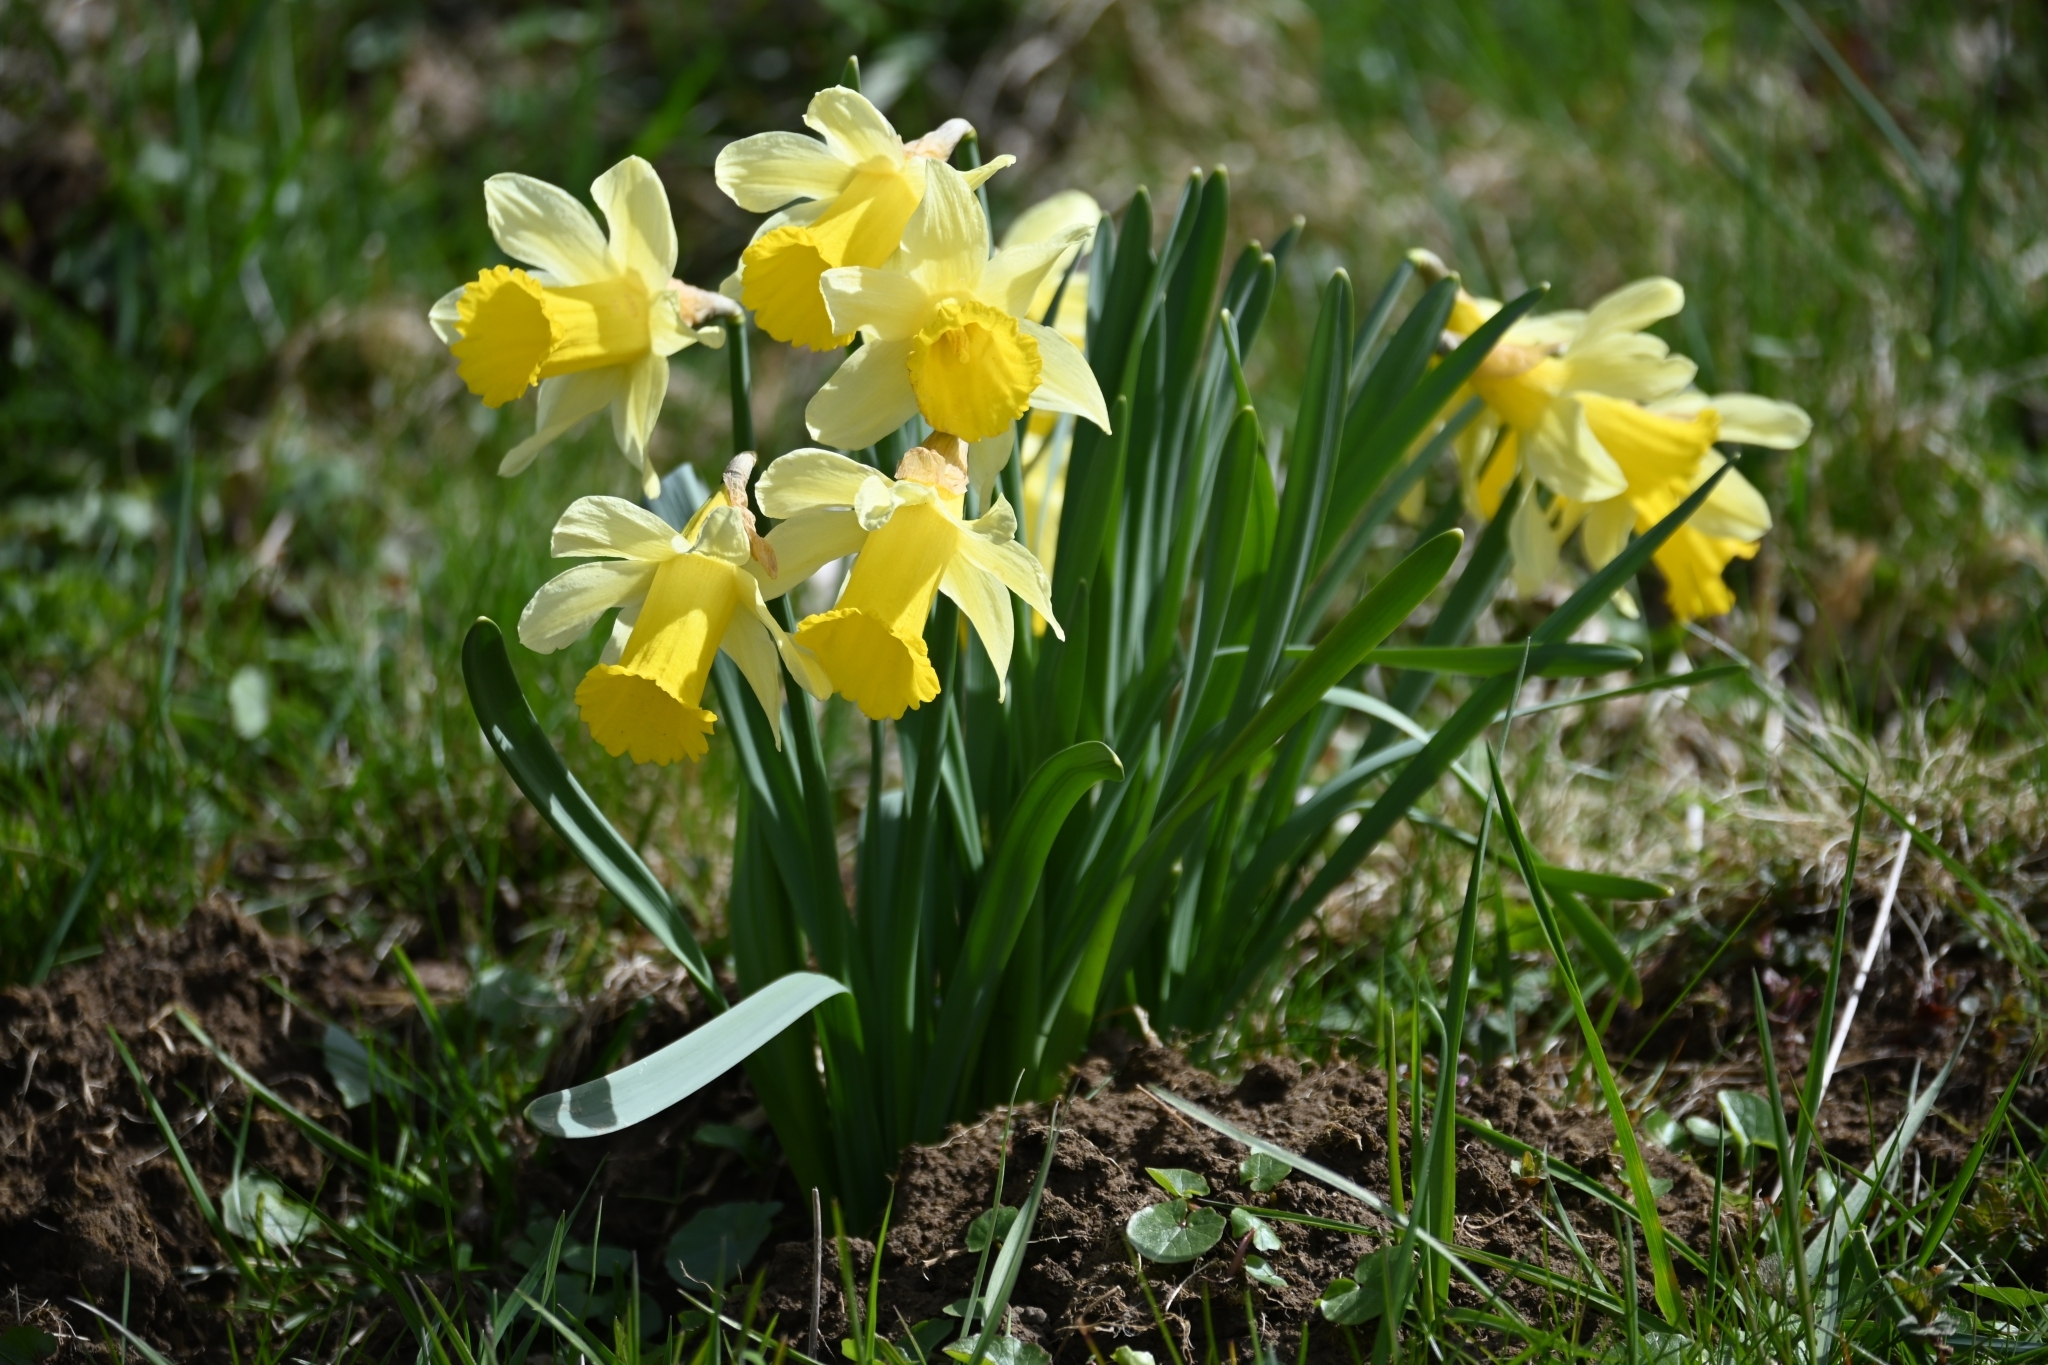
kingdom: Plantae
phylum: Tracheophyta
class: Liliopsida
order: Asparagales
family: Amaryllidaceae
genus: Narcissus
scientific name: Narcissus pseudonarcissus
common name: Daffodil
